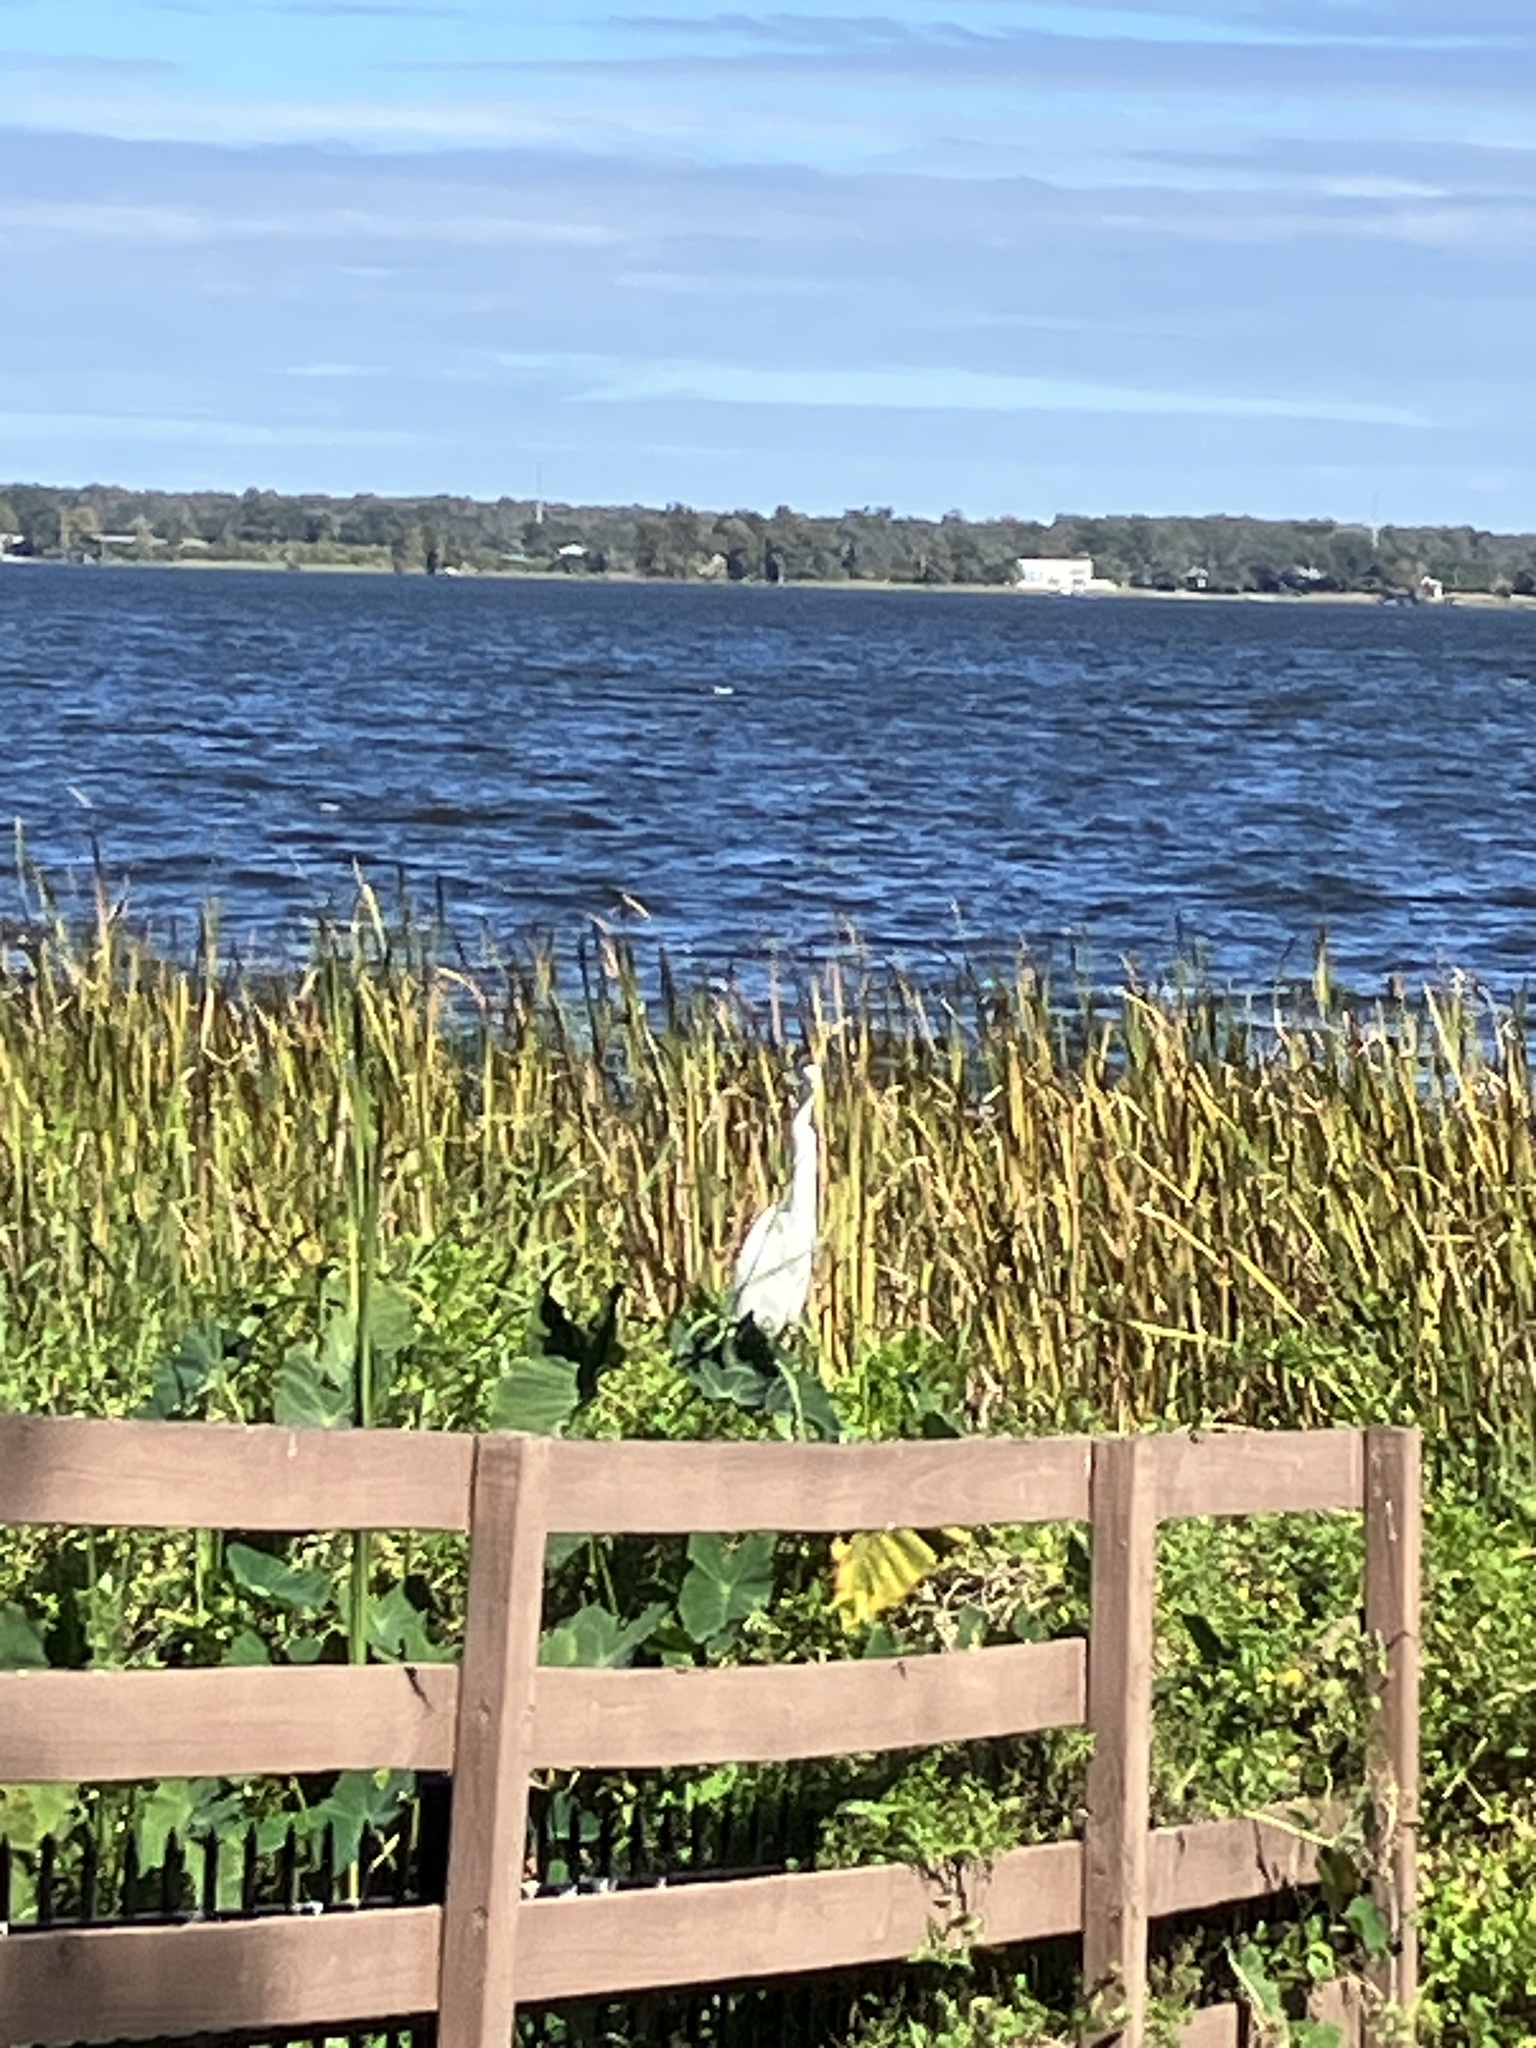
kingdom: Animalia
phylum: Chordata
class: Aves
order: Pelecaniformes
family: Ardeidae
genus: Ardea
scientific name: Ardea alba
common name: Great egret
